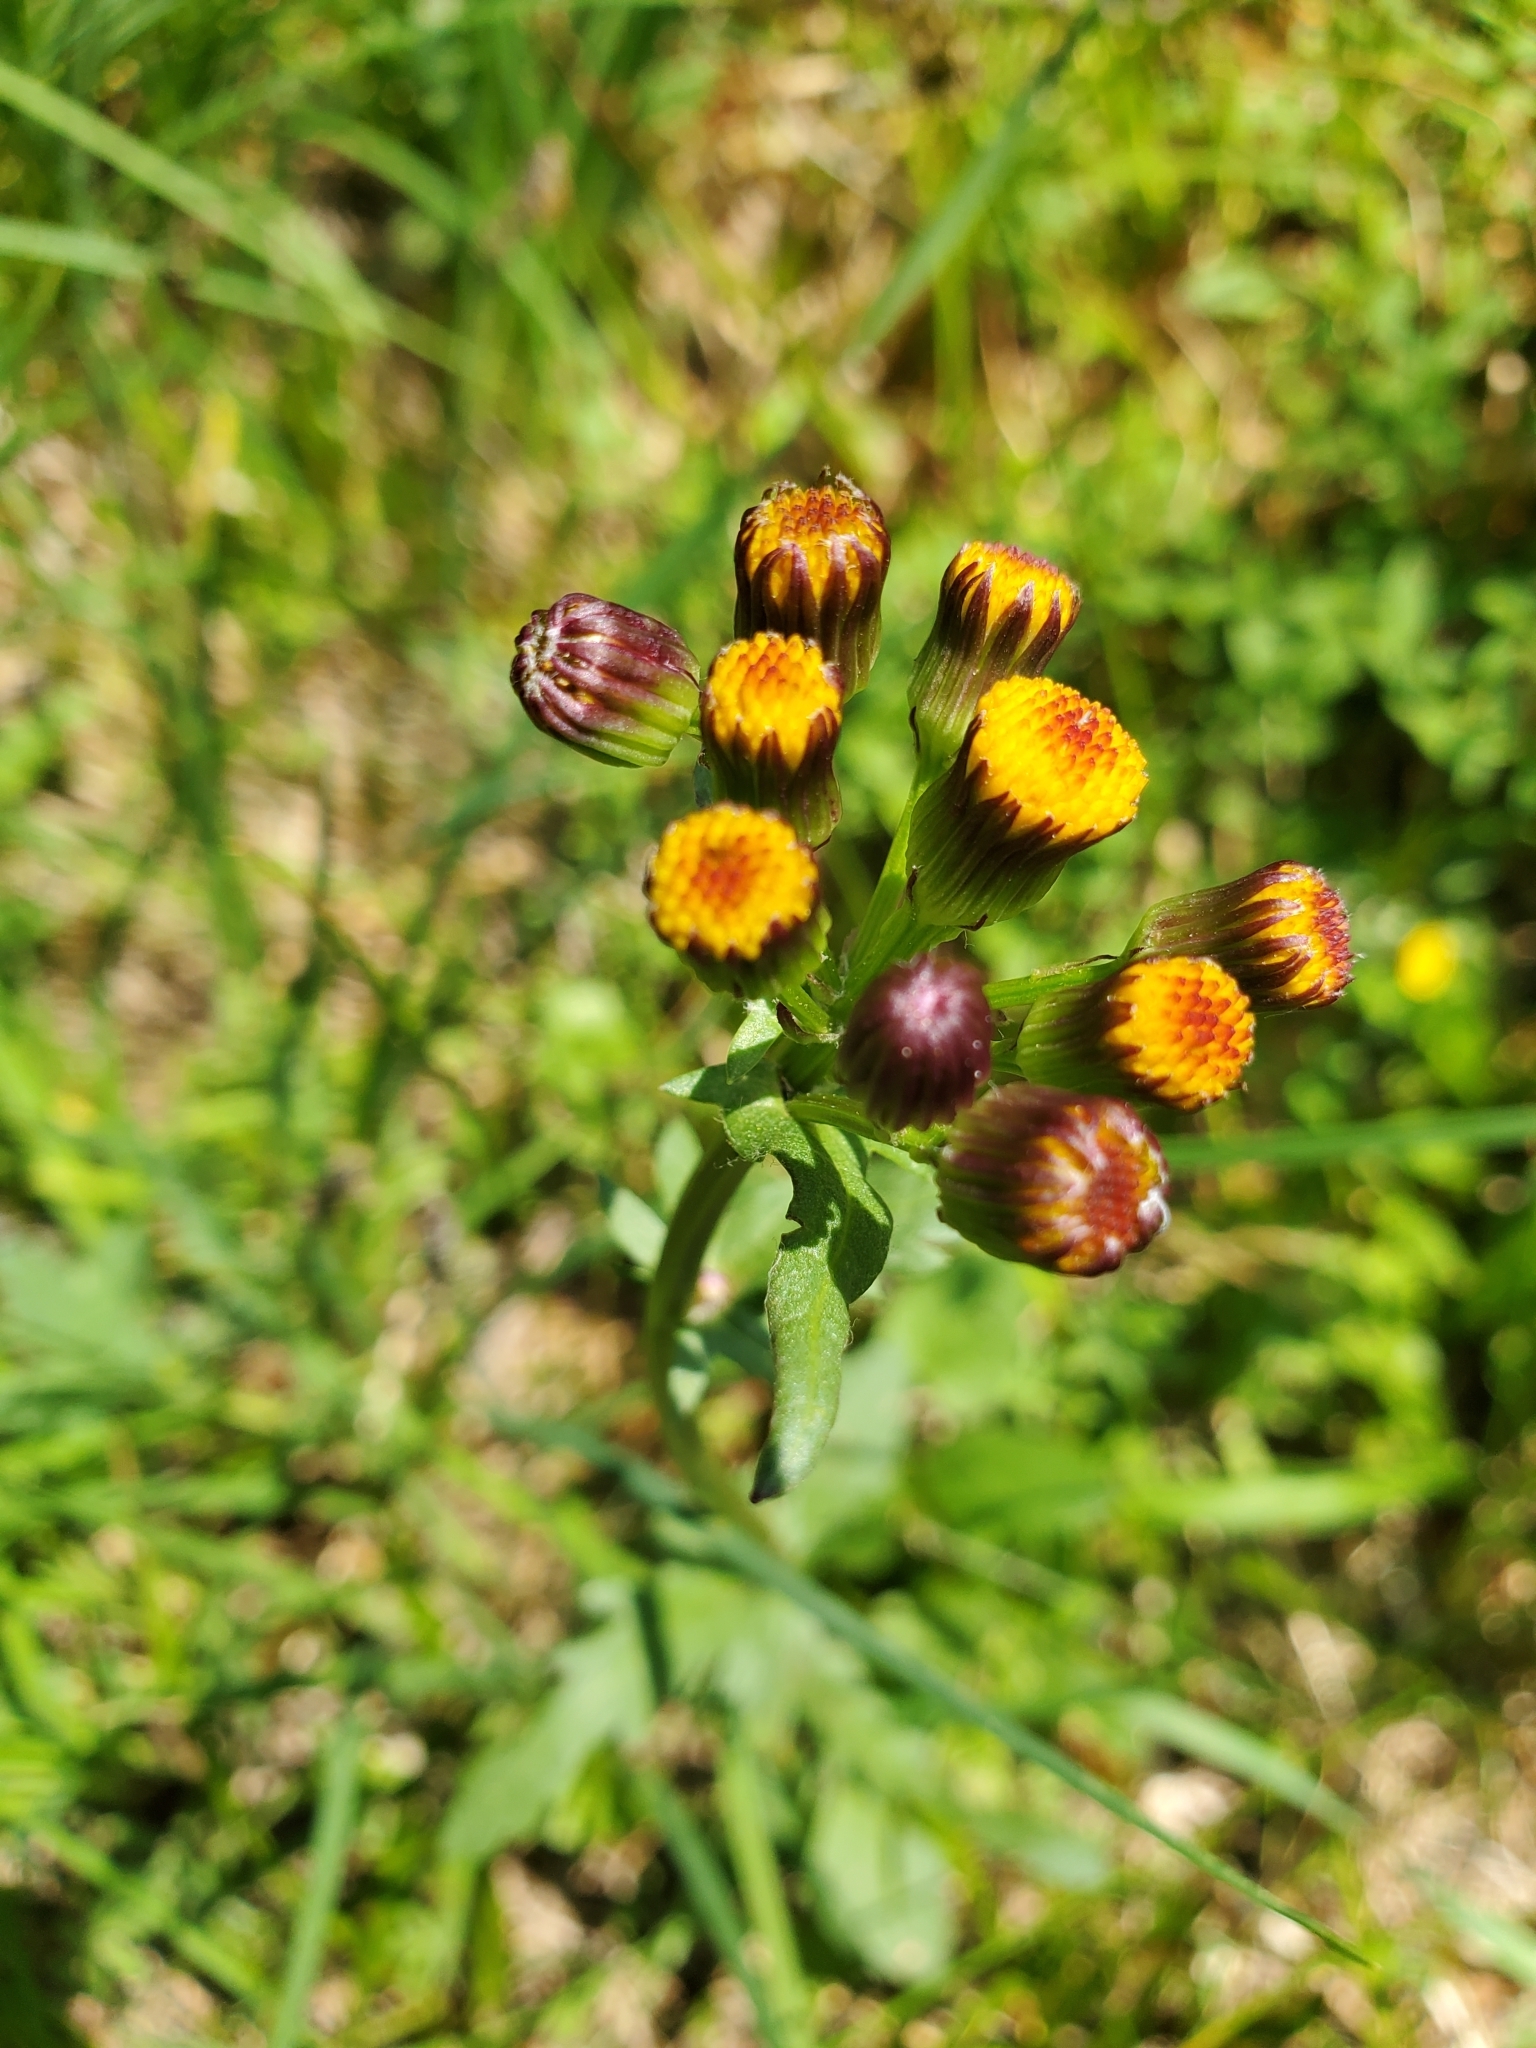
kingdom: Plantae
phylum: Tracheophyta
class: Magnoliopsida
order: Asterales
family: Asteraceae
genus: Packera
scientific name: Packera indecora
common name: Elegant groundsel
